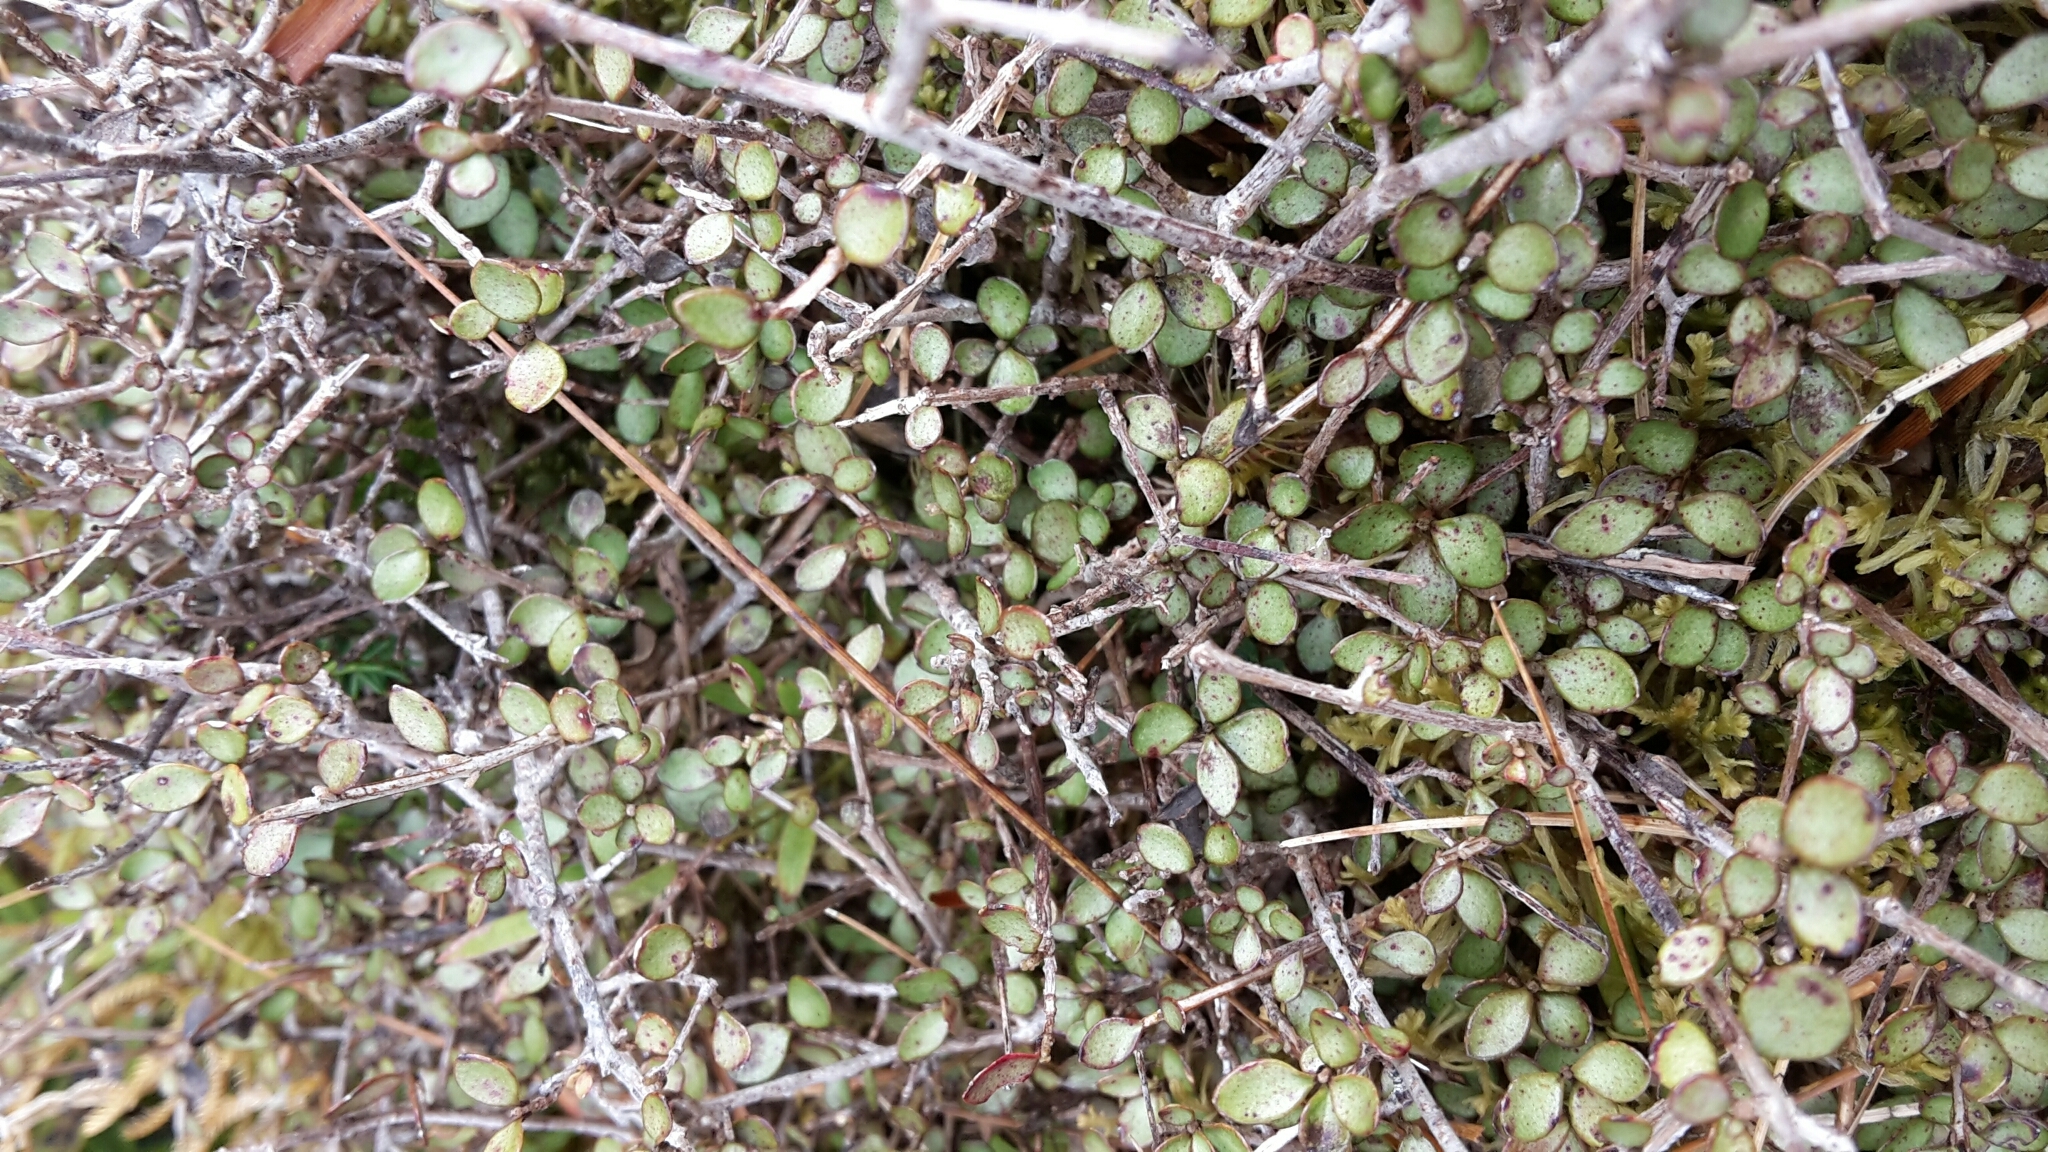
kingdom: Plantae
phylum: Tracheophyta
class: Magnoliopsida
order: Myrtales
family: Myrtaceae
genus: Neomyrtus
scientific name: Neomyrtus pedunculata
